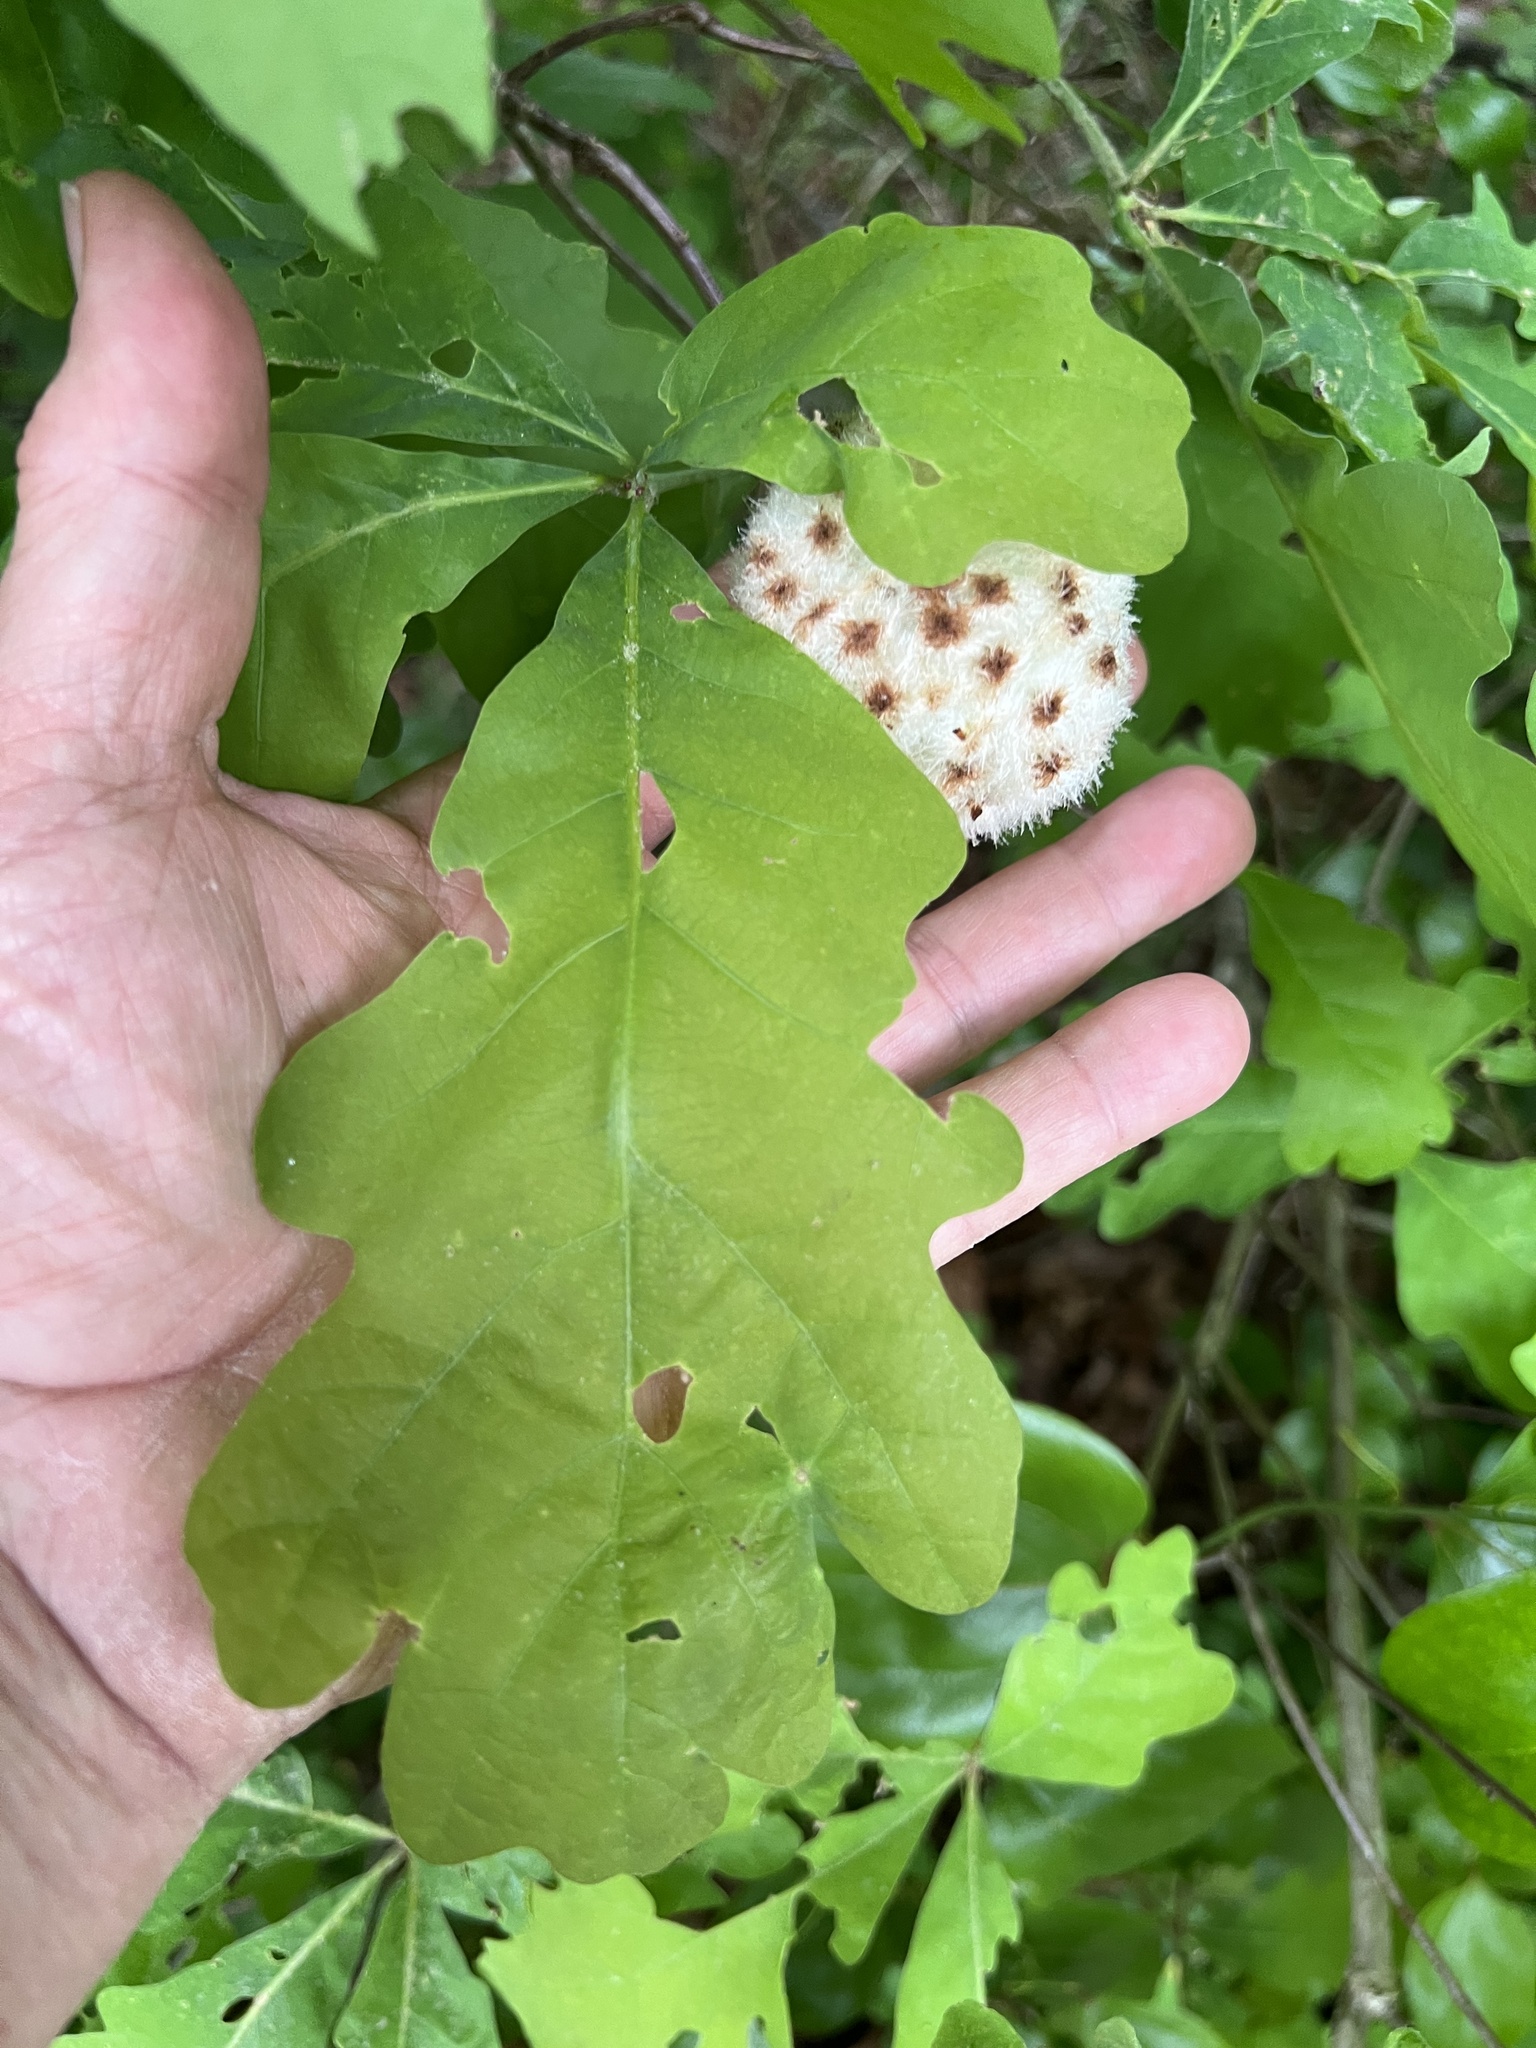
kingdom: Animalia
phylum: Arthropoda
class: Insecta
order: Hymenoptera
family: Cynipidae
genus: Callirhytis
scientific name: Callirhytis
